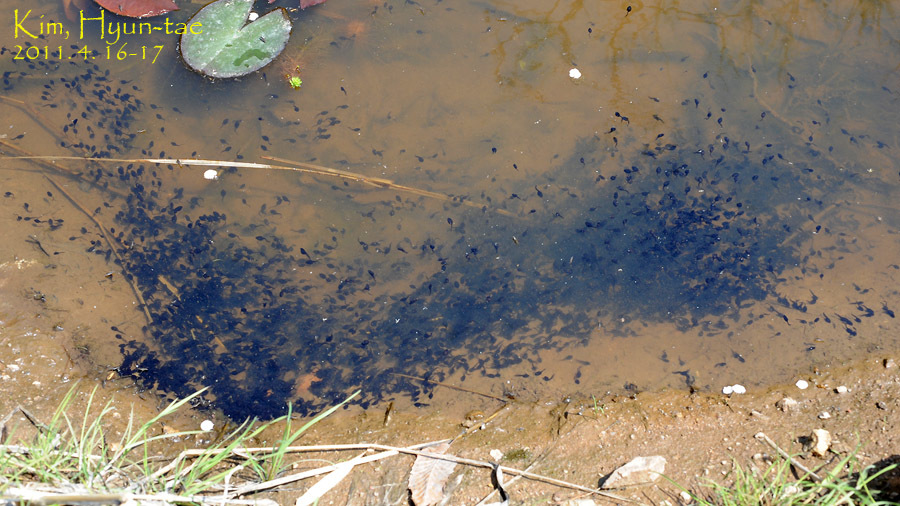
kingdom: Animalia
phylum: Chordata
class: Amphibia
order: Anura
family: Bufonidae
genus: Bufo
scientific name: Bufo gargarizans
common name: Asiatic toad
